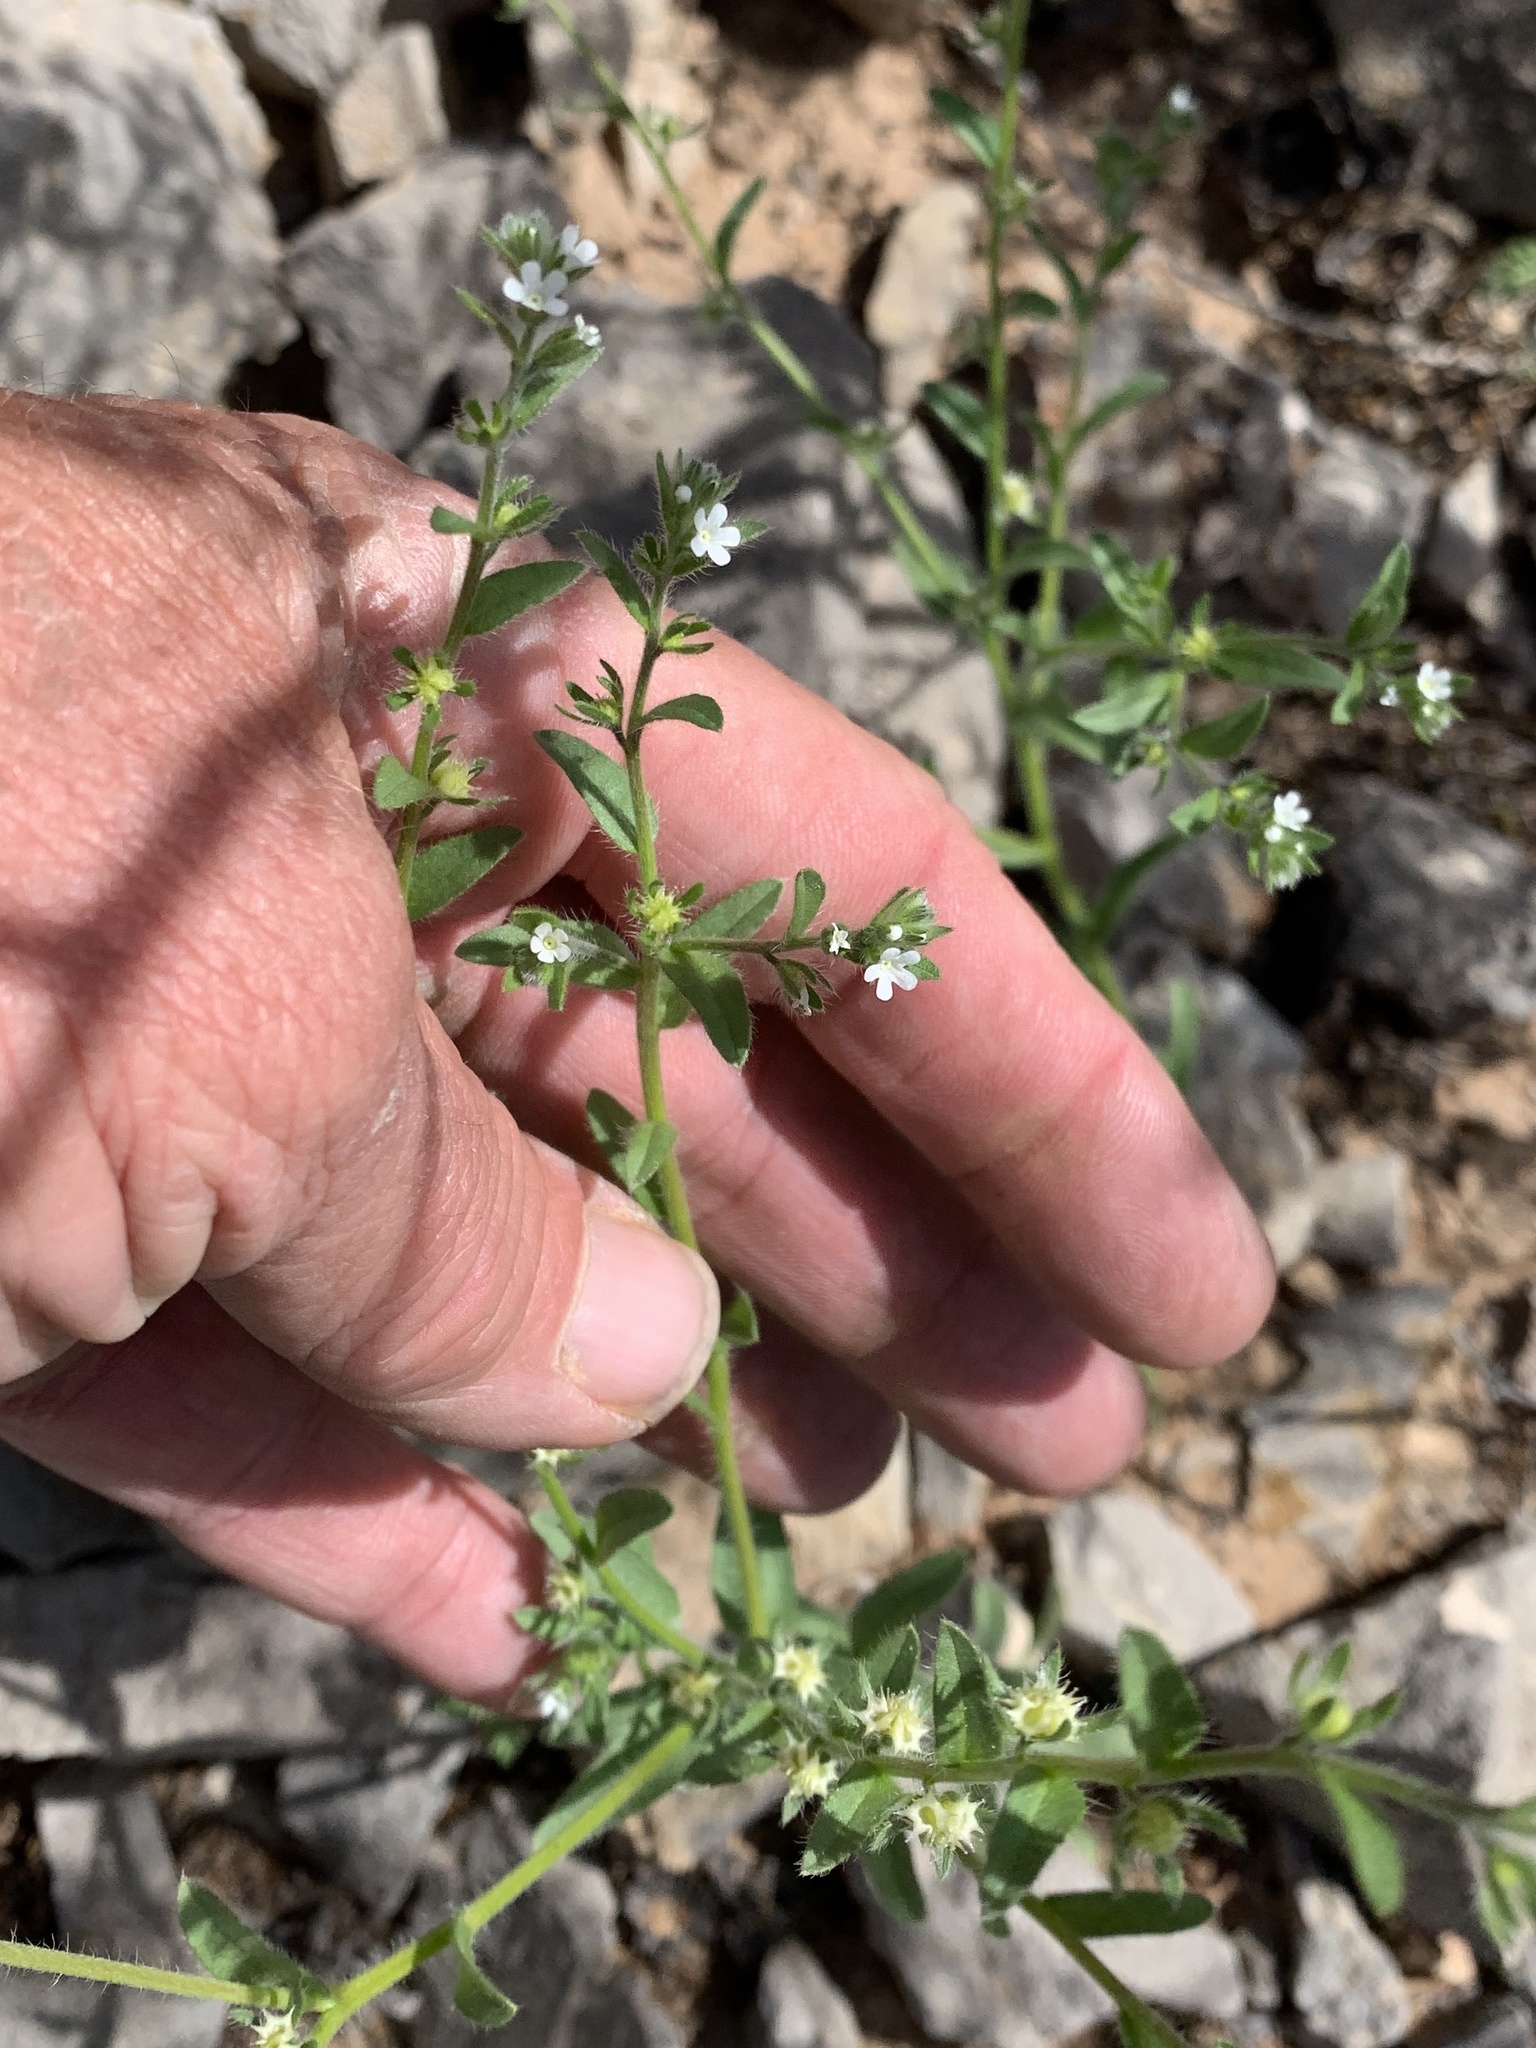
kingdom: Plantae
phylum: Tracheophyta
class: Magnoliopsida
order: Boraginales
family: Boraginaceae
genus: Lappula
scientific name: Lappula occidentalis
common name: Western stickseed
